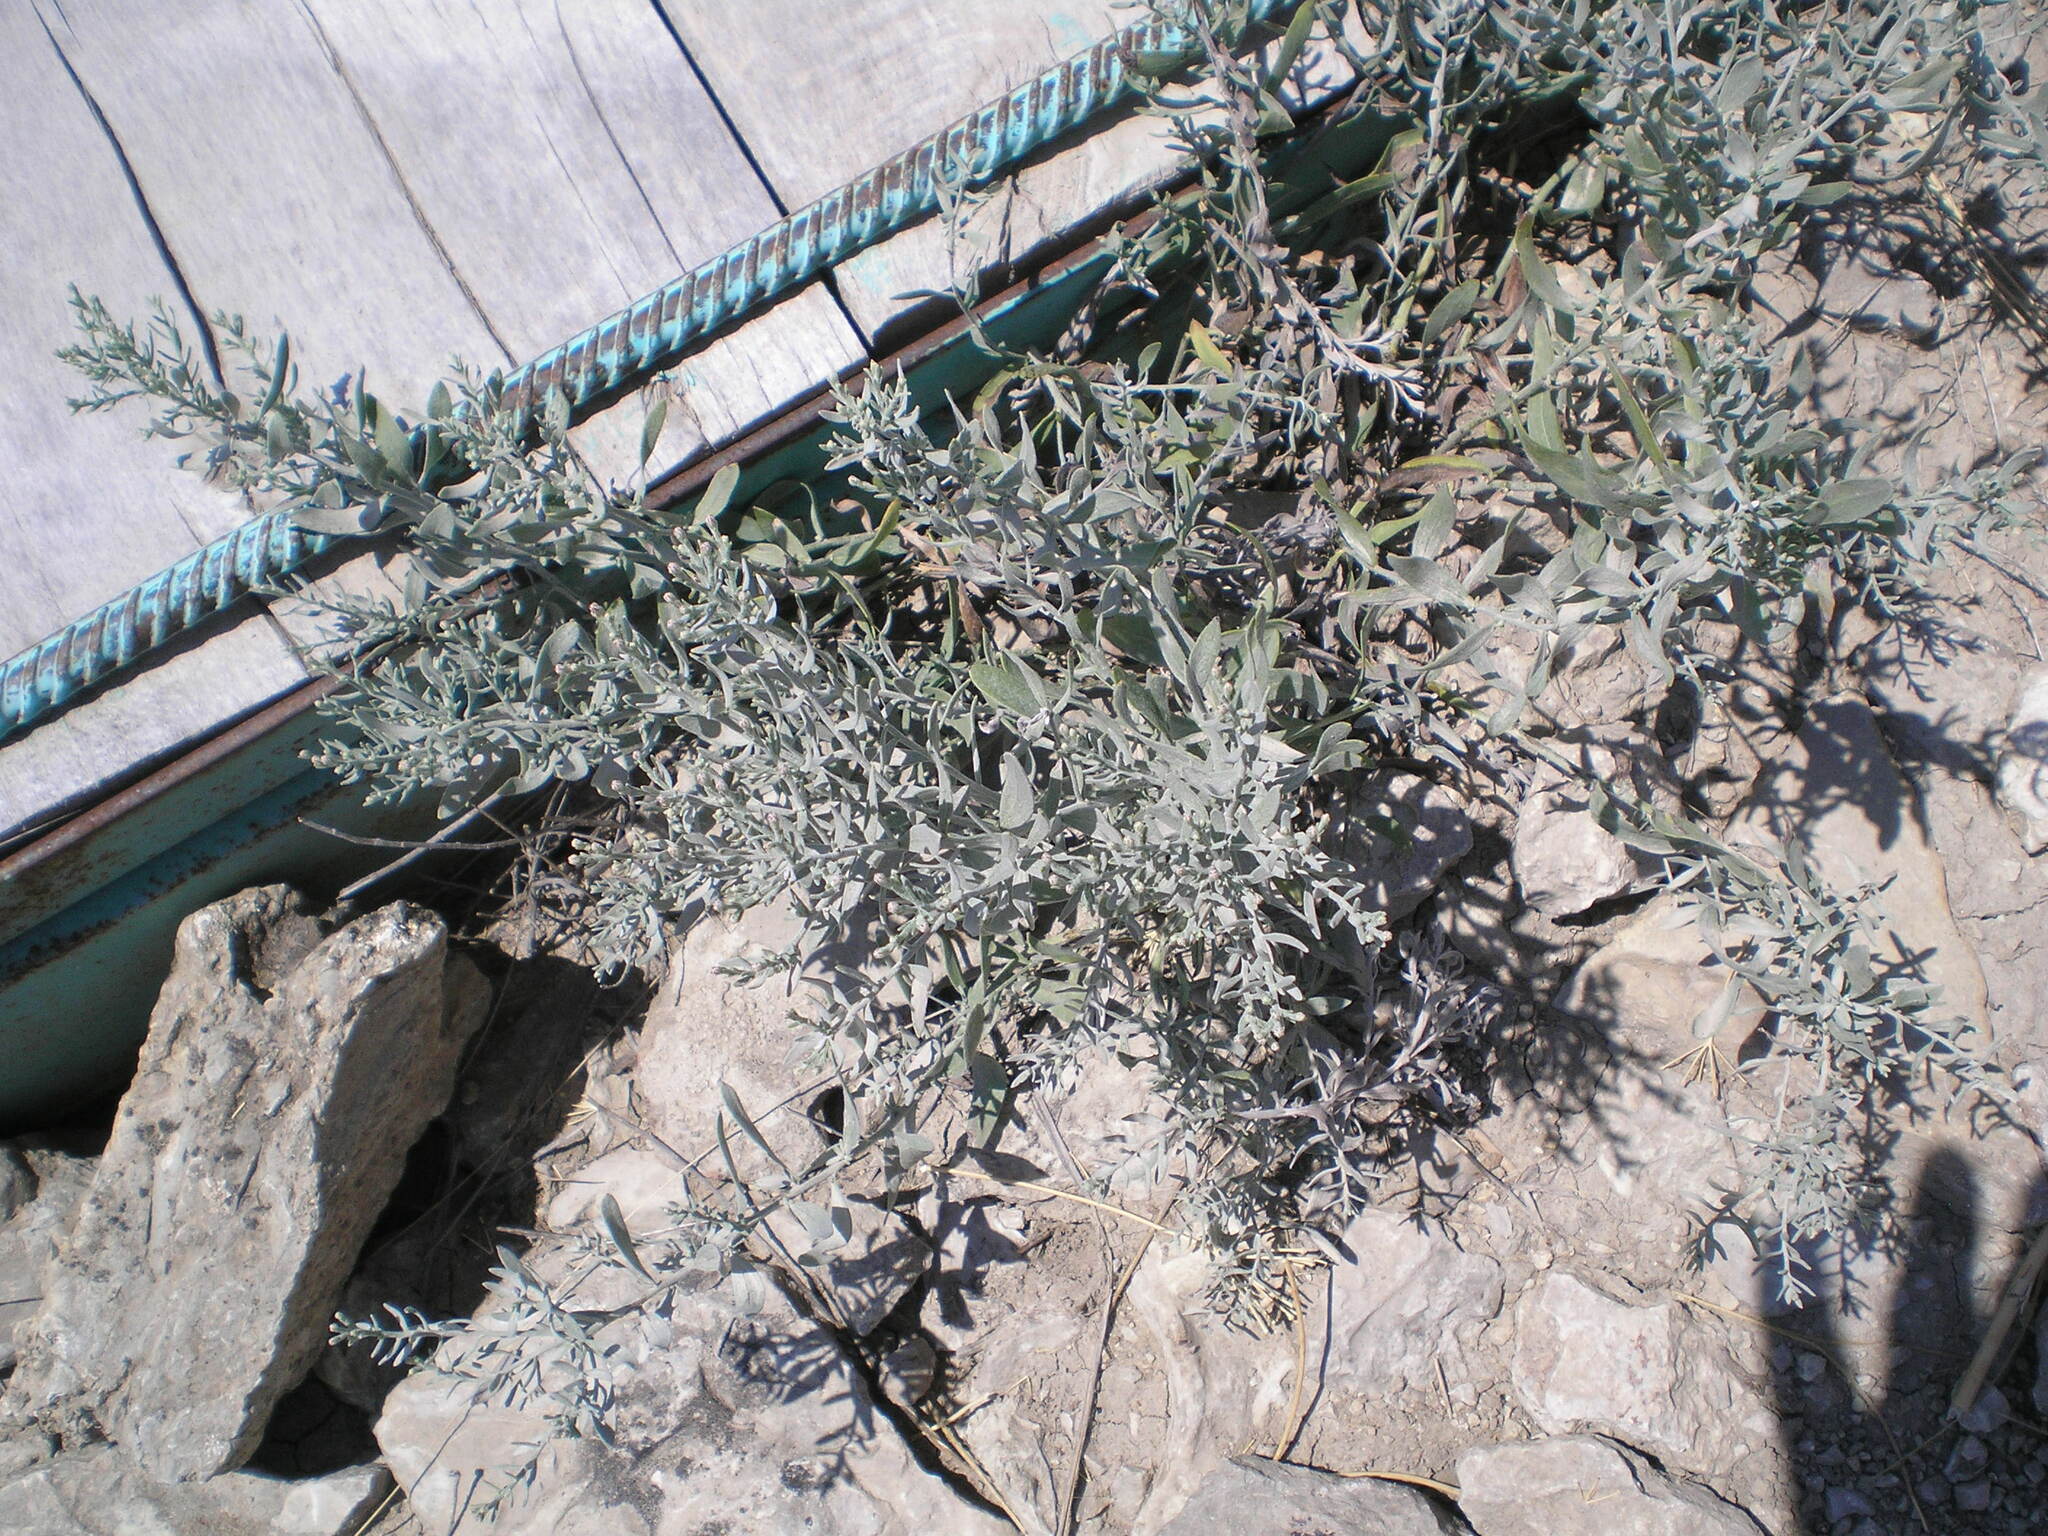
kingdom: Plantae
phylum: Tracheophyta
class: Magnoliopsida
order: Asterales
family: Asteraceae
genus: Galatella
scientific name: Galatella villosa
